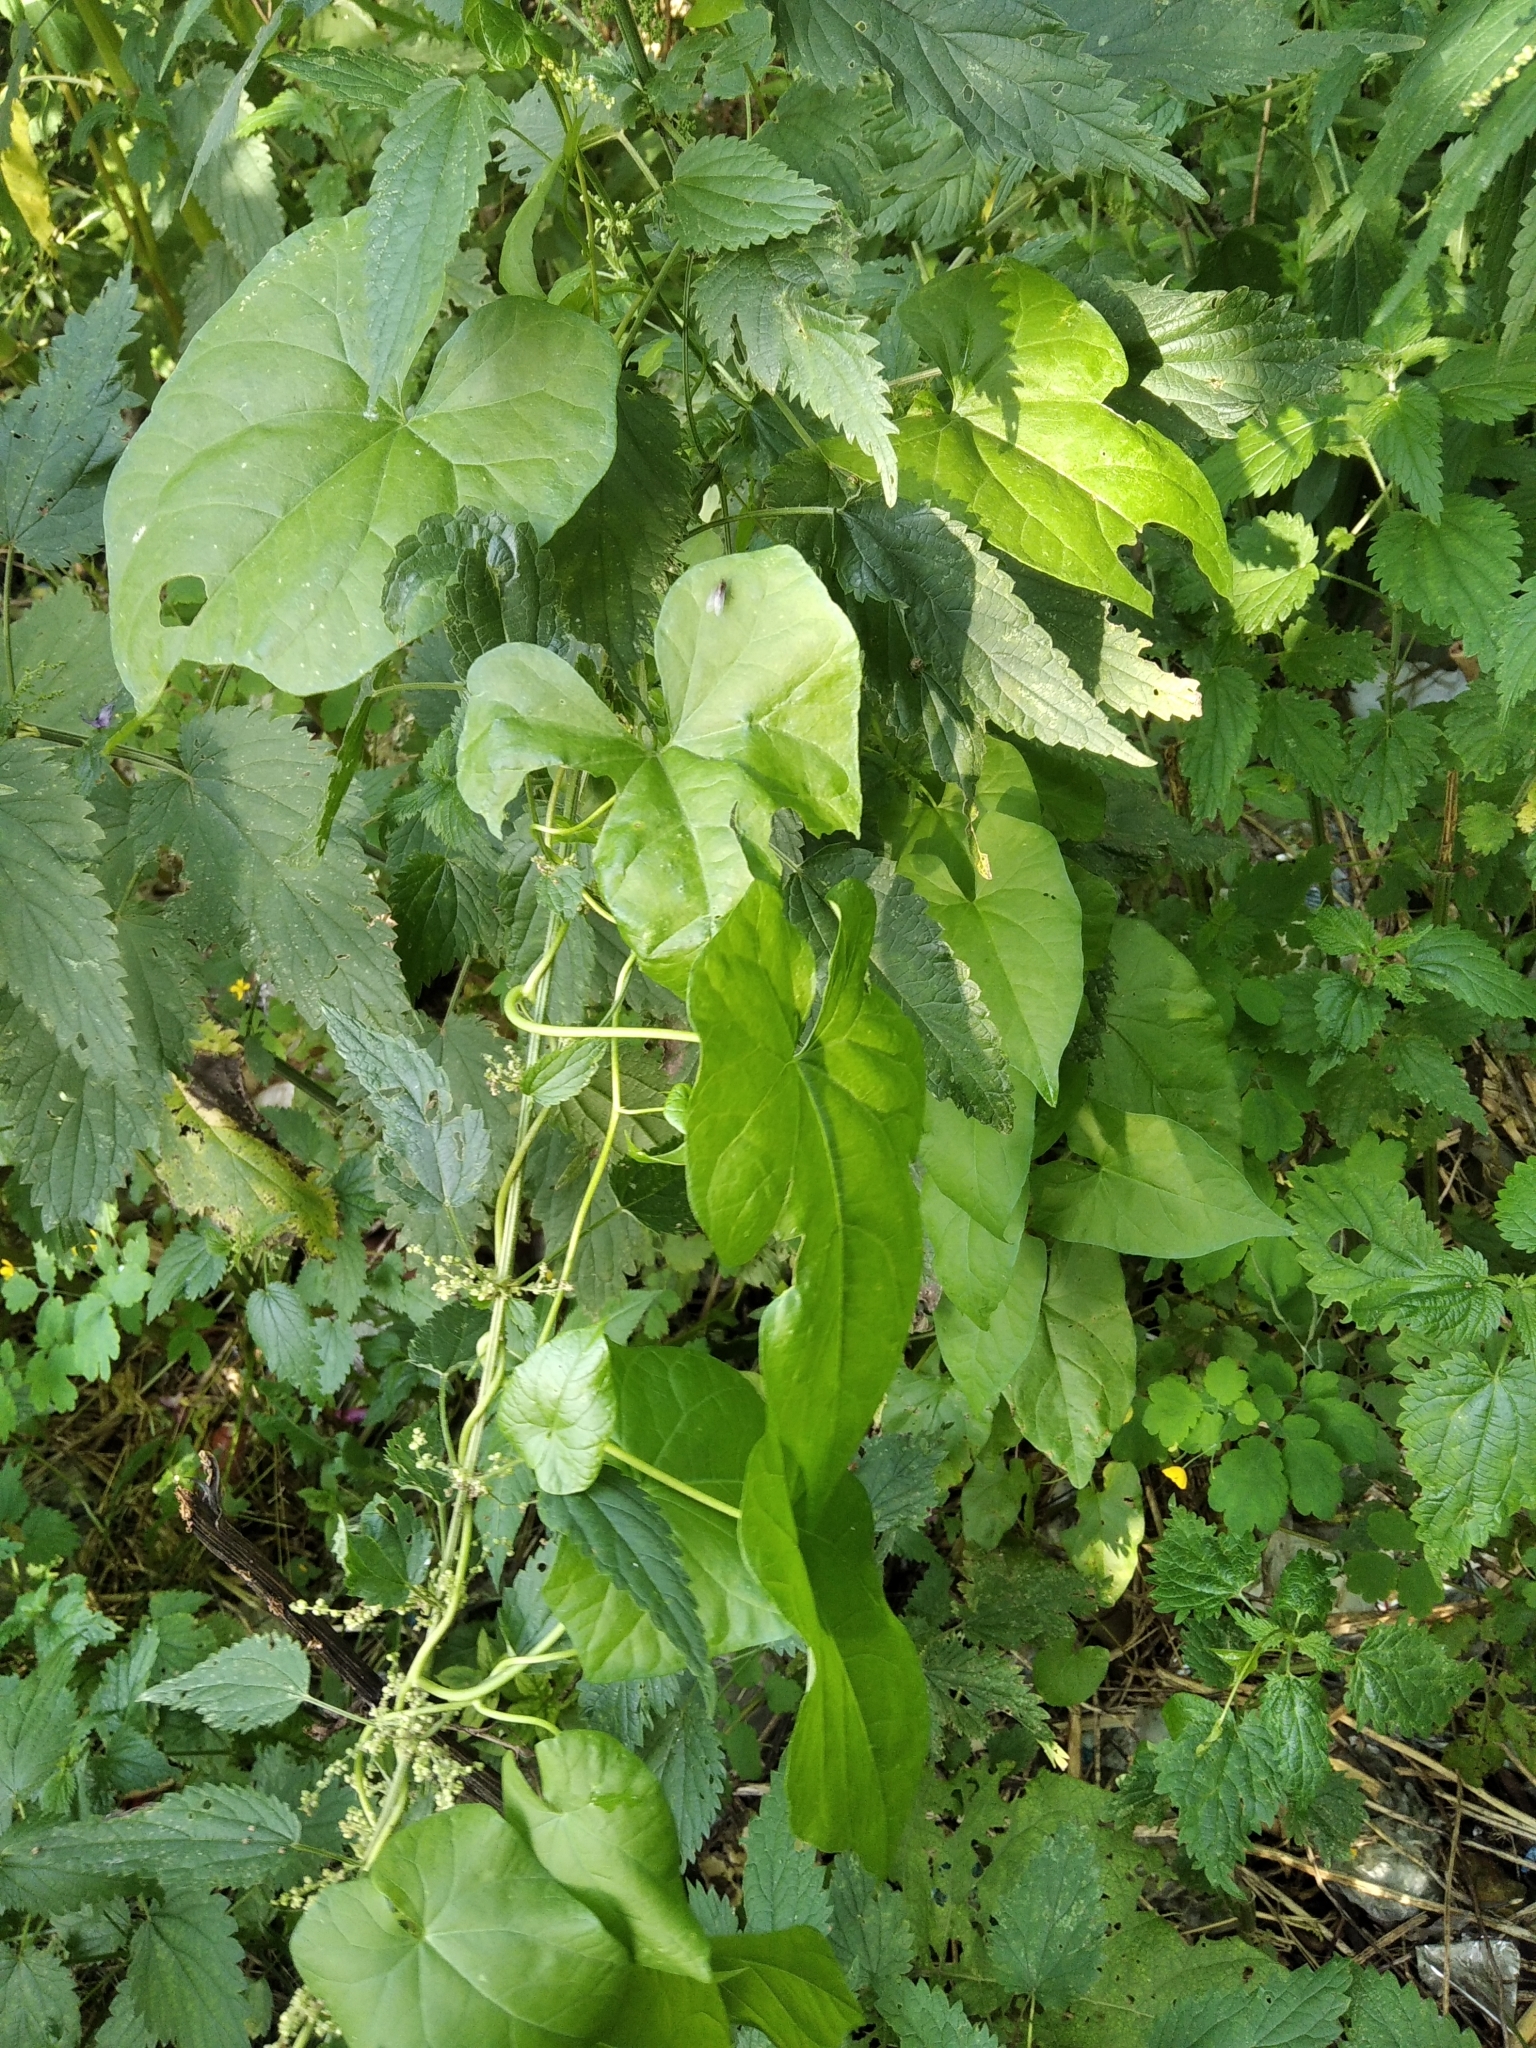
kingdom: Plantae
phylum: Tracheophyta
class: Magnoliopsida
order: Solanales
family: Convolvulaceae
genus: Calystegia
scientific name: Calystegia sepium
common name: Hedge bindweed
